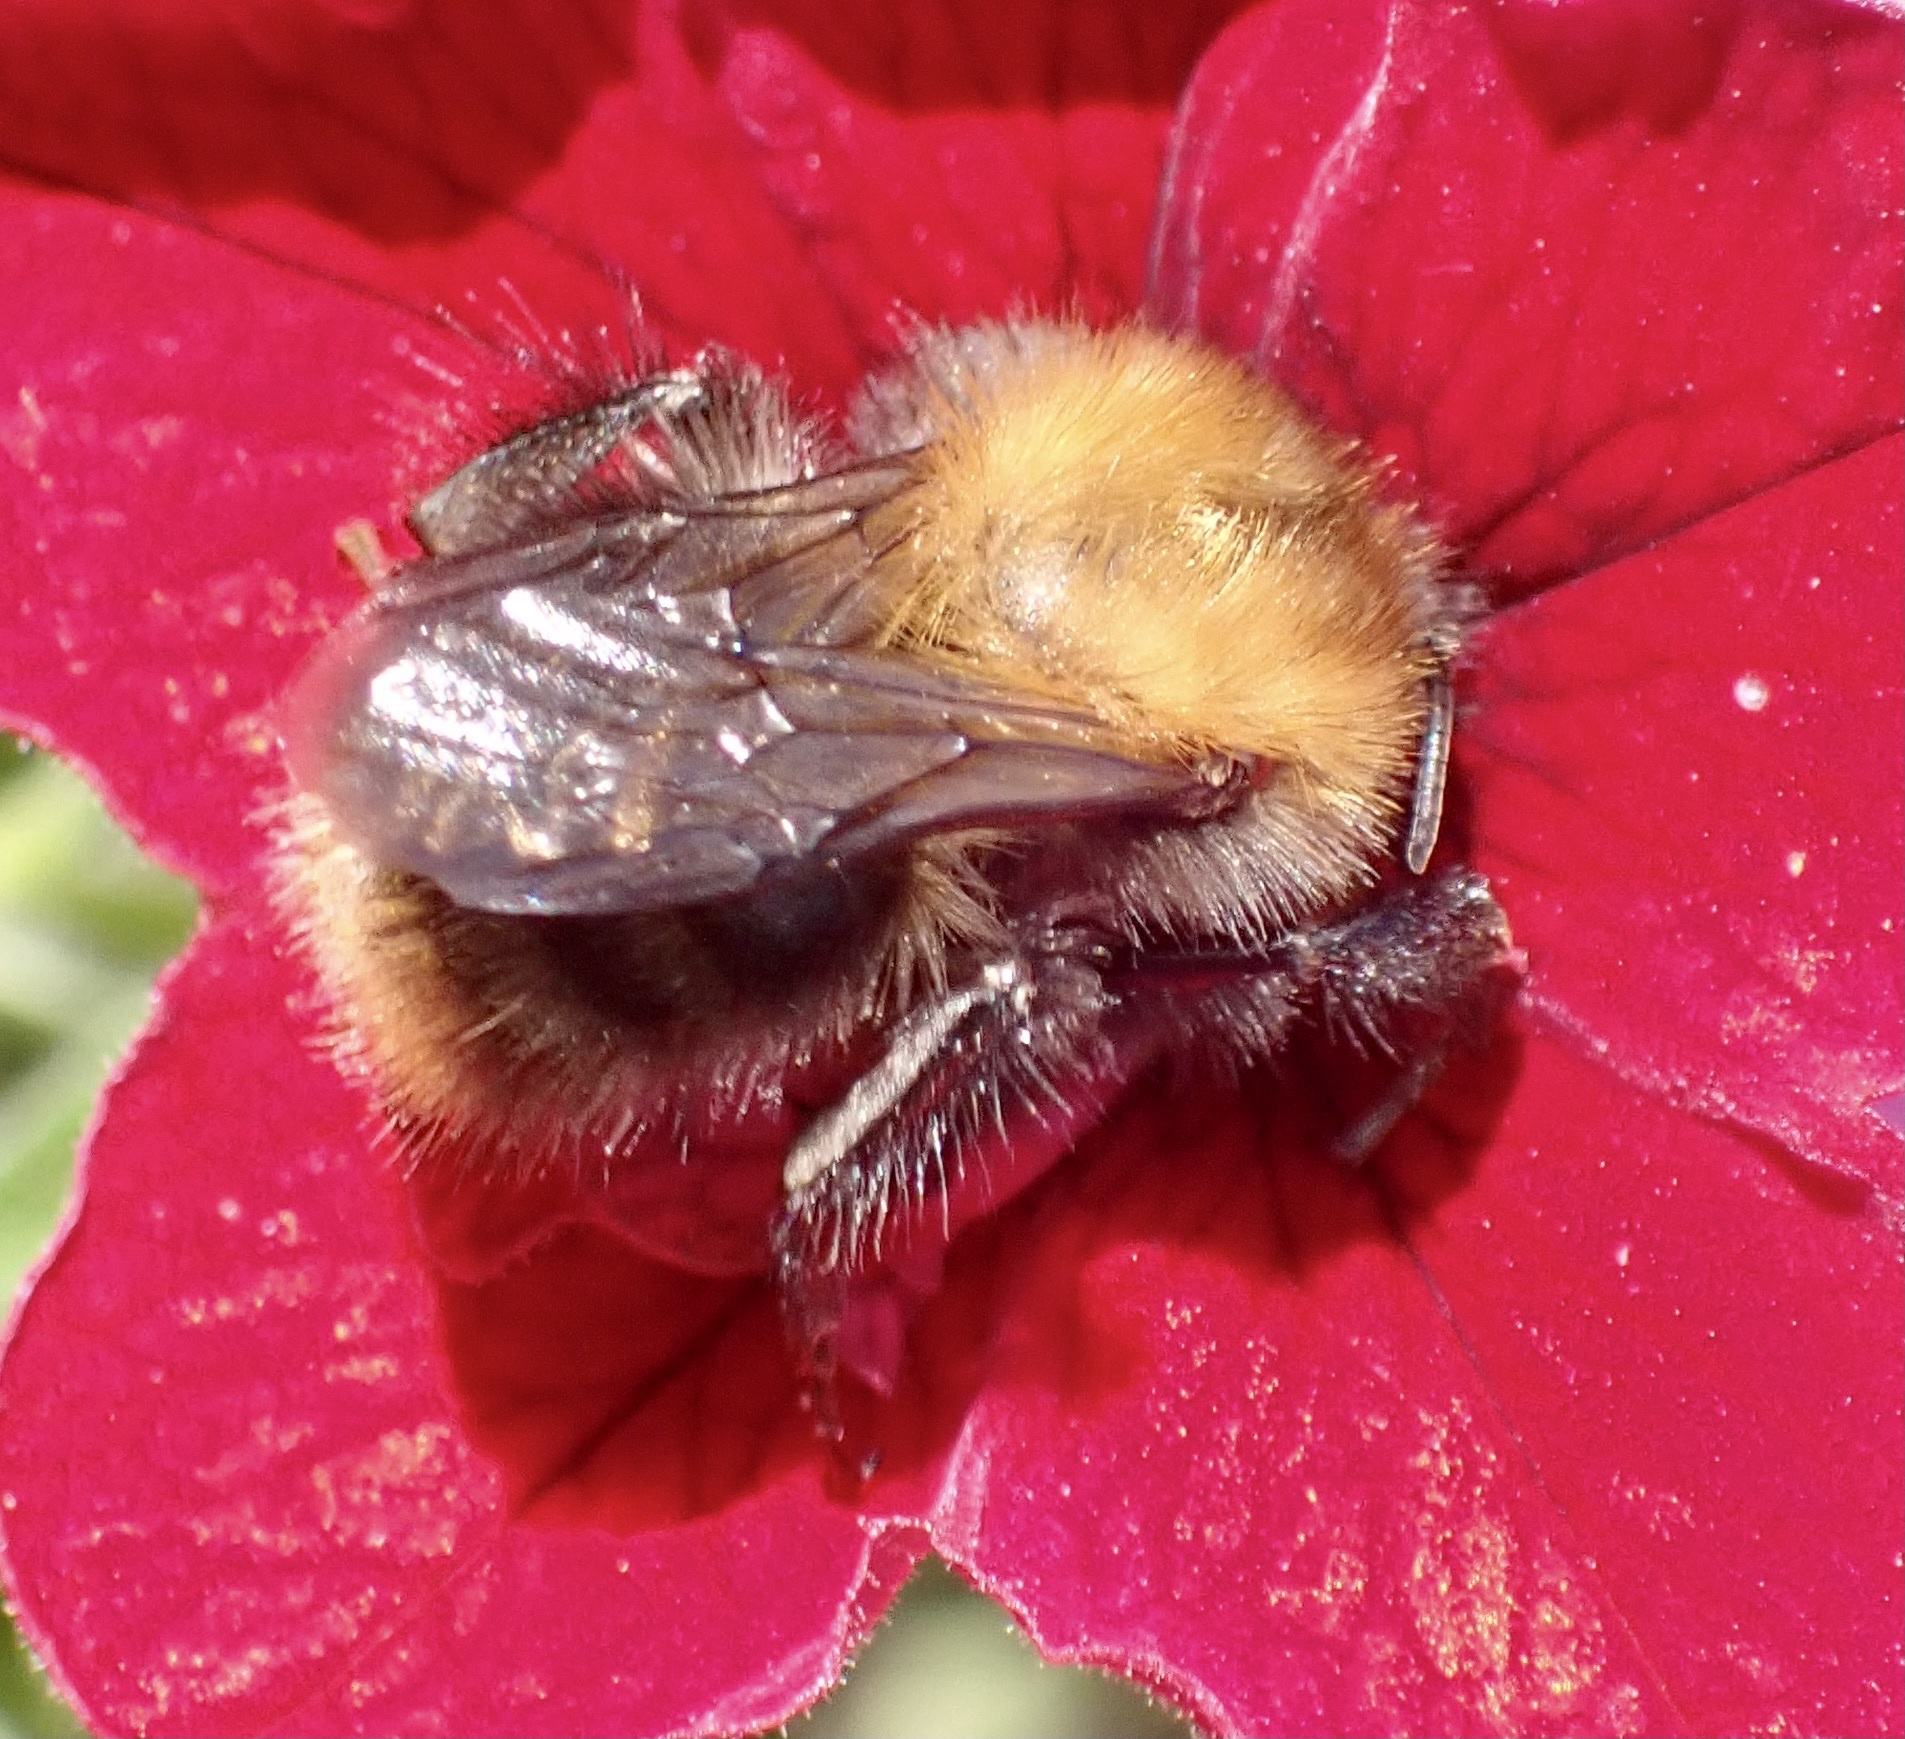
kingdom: Animalia
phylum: Arthropoda
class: Insecta
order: Hymenoptera
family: Apidae
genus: Bombus
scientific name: Bombus pascuorum
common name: Common carder bee
